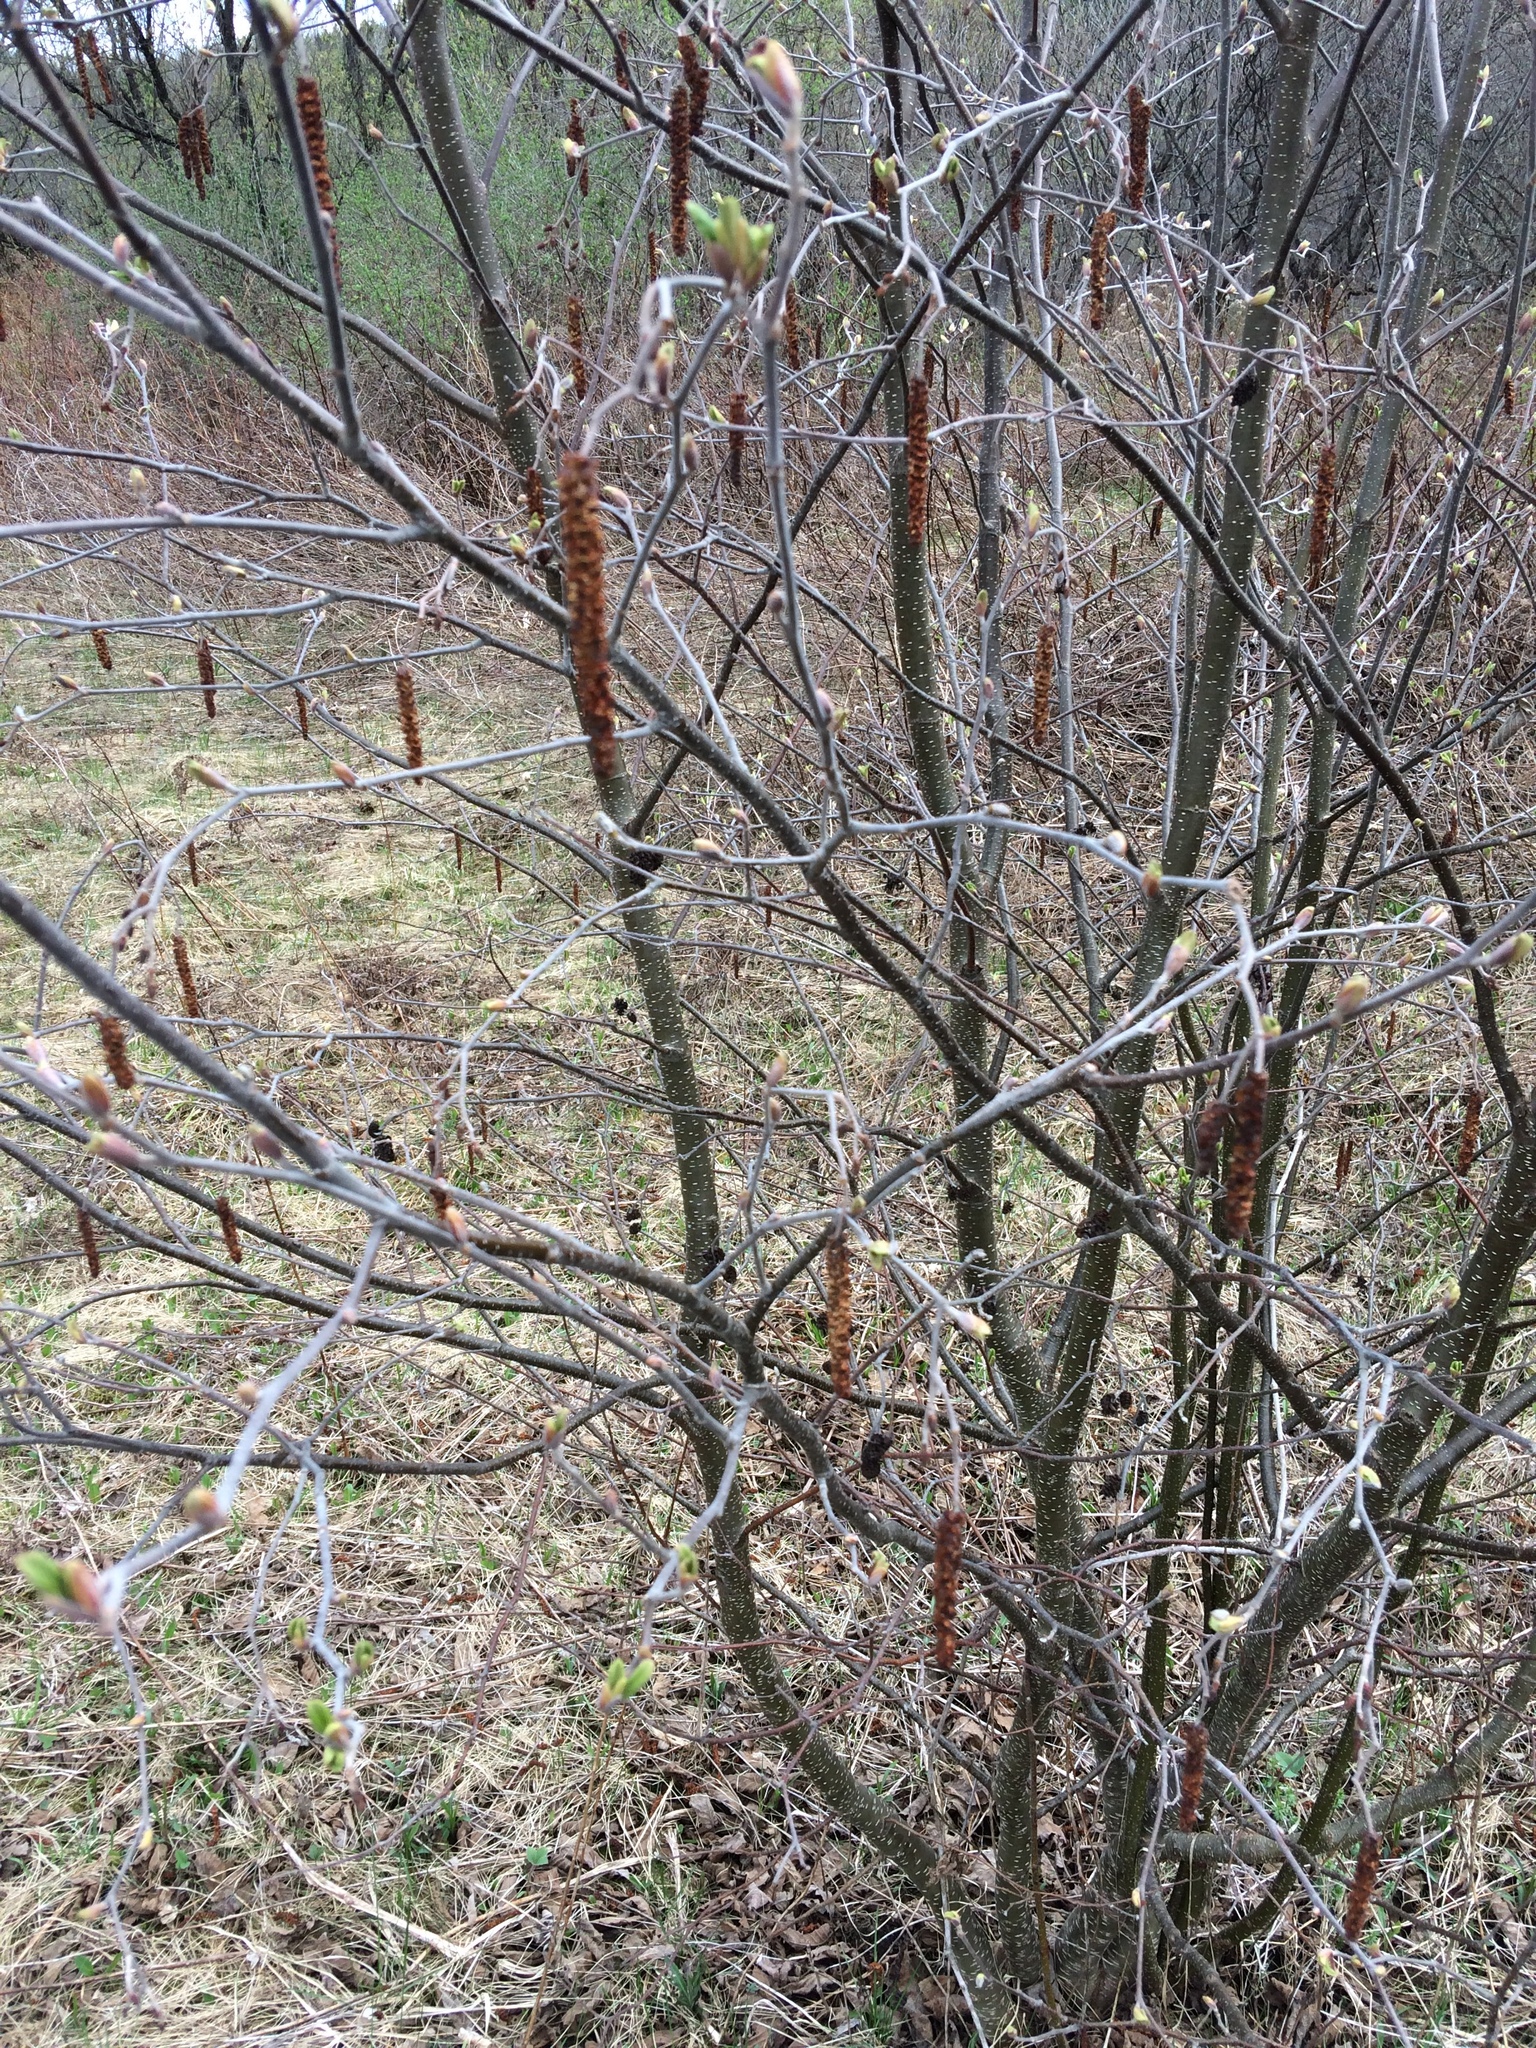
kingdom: Plantae
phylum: Tracheophyta
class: Magnoliopsida
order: Fagales
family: Betulaceae
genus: Alnus
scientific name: Alnus incana
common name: Grey alder
